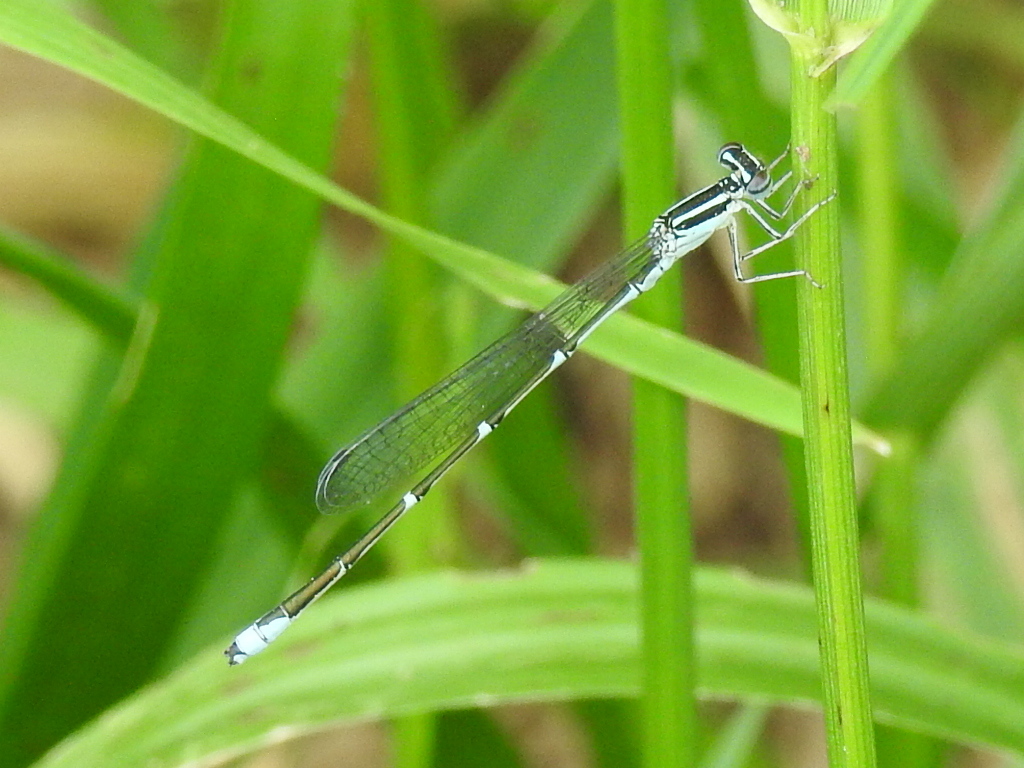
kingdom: Animalia
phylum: Arthropoda
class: Insecta
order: Odonata
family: Coenagrionidae
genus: Enallagma
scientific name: Enallagma exsulans
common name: Stream bluet
